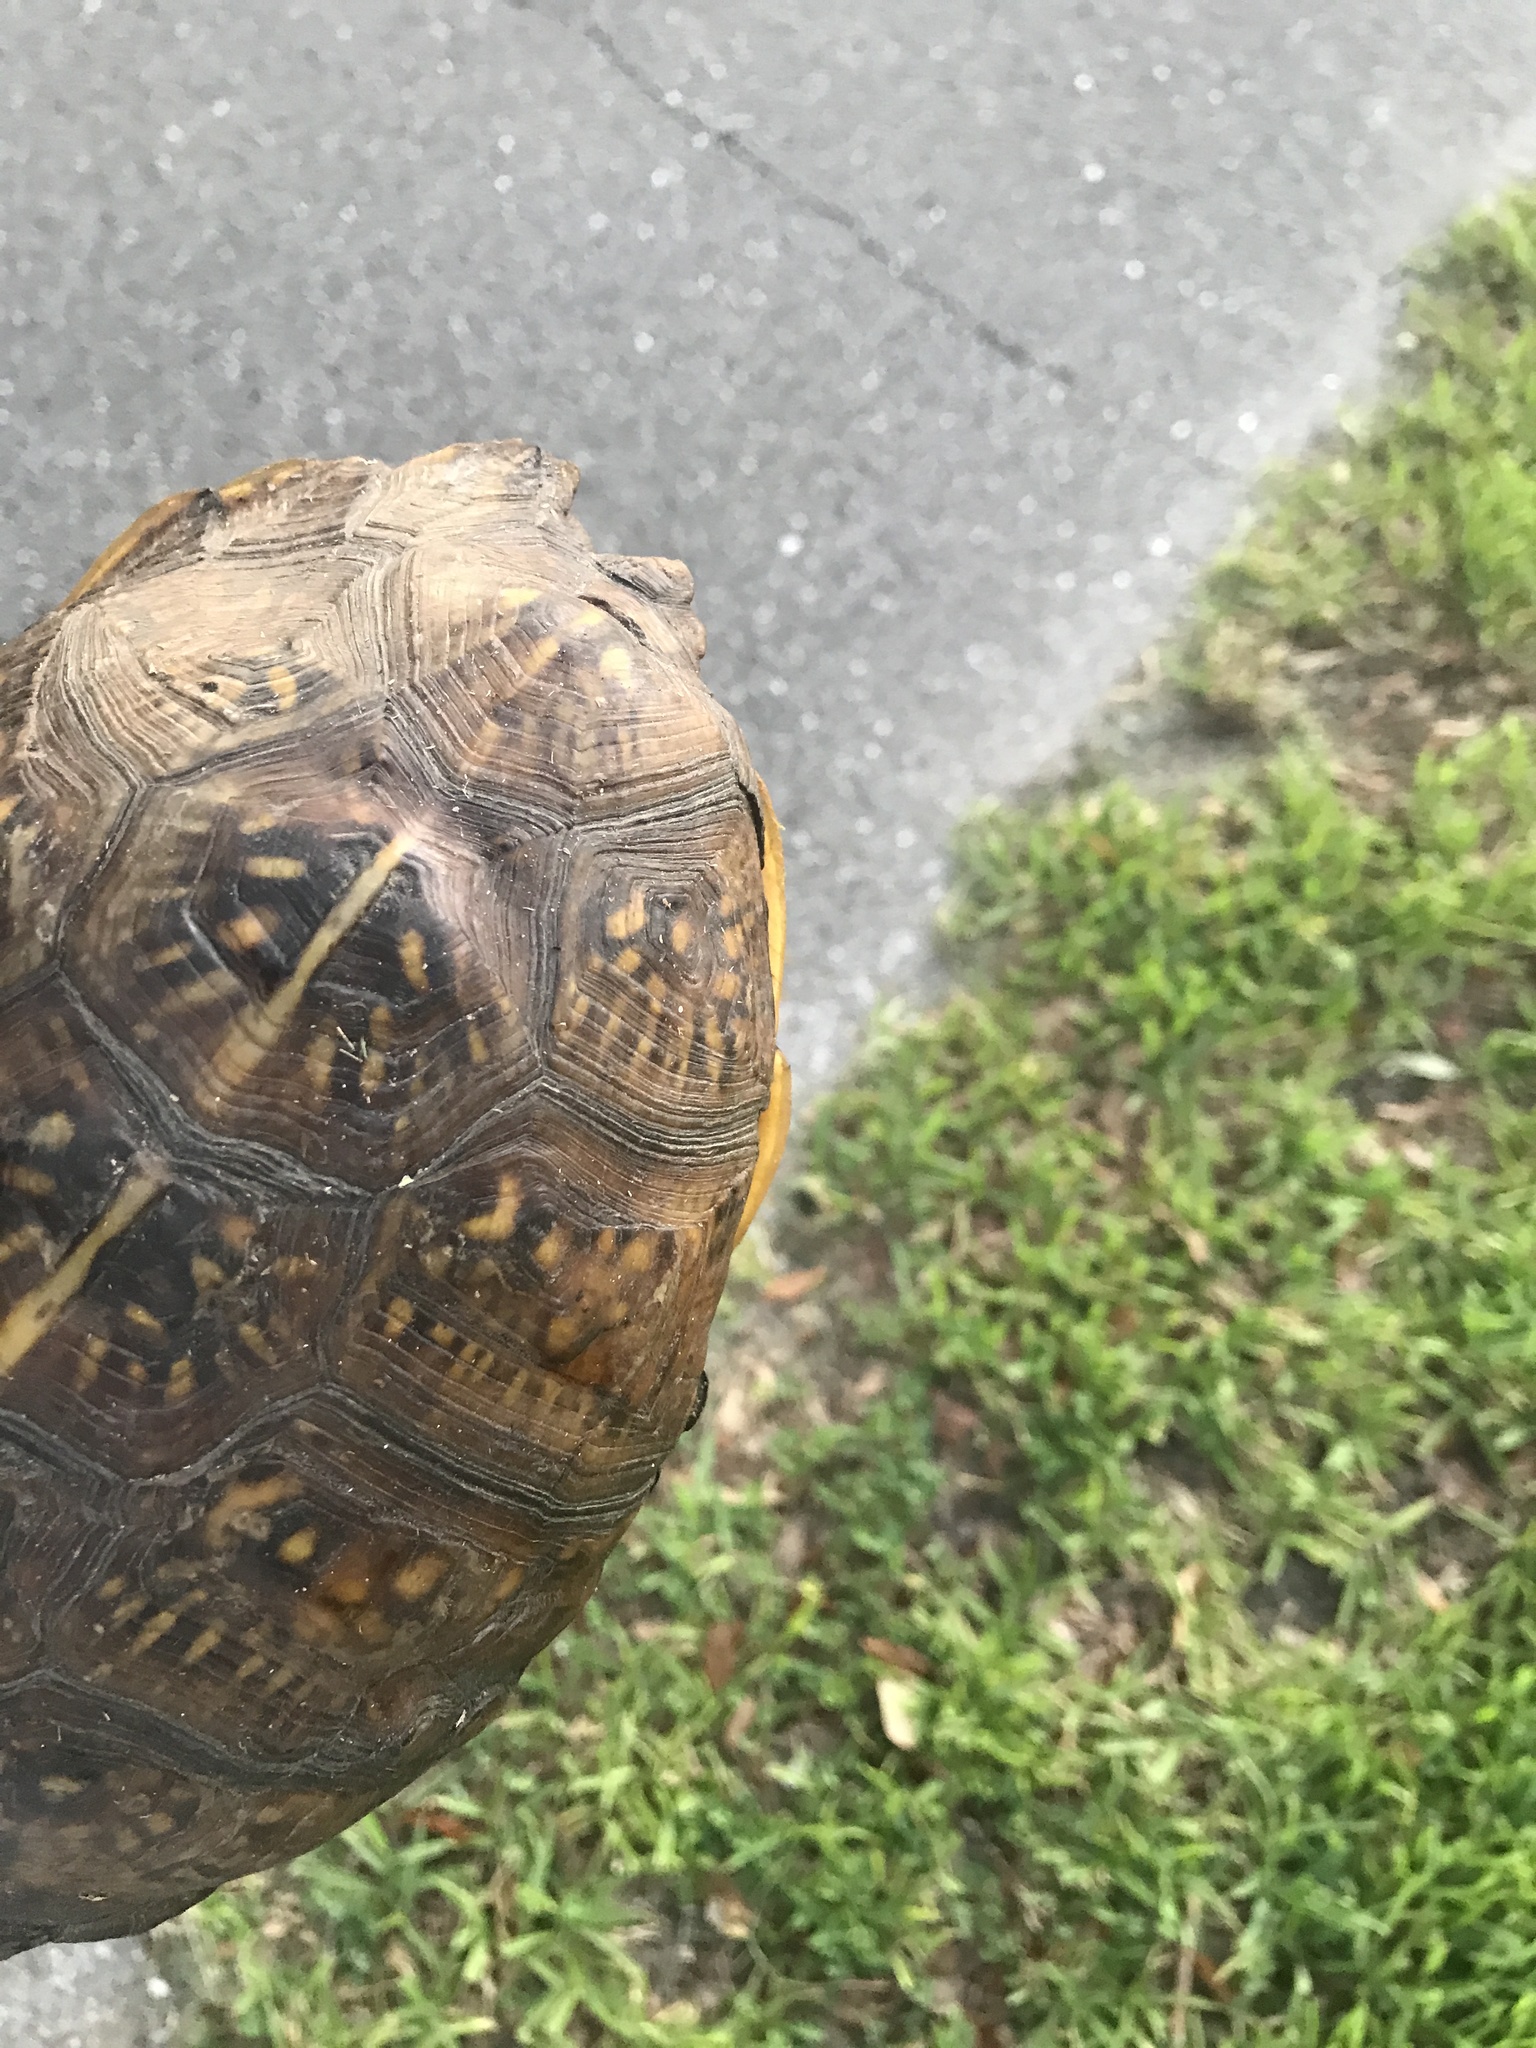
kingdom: Animalia
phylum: Chordata
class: Testudines
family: Emydidae
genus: Terrapene
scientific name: Terrapene carolina
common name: Common box turtle
